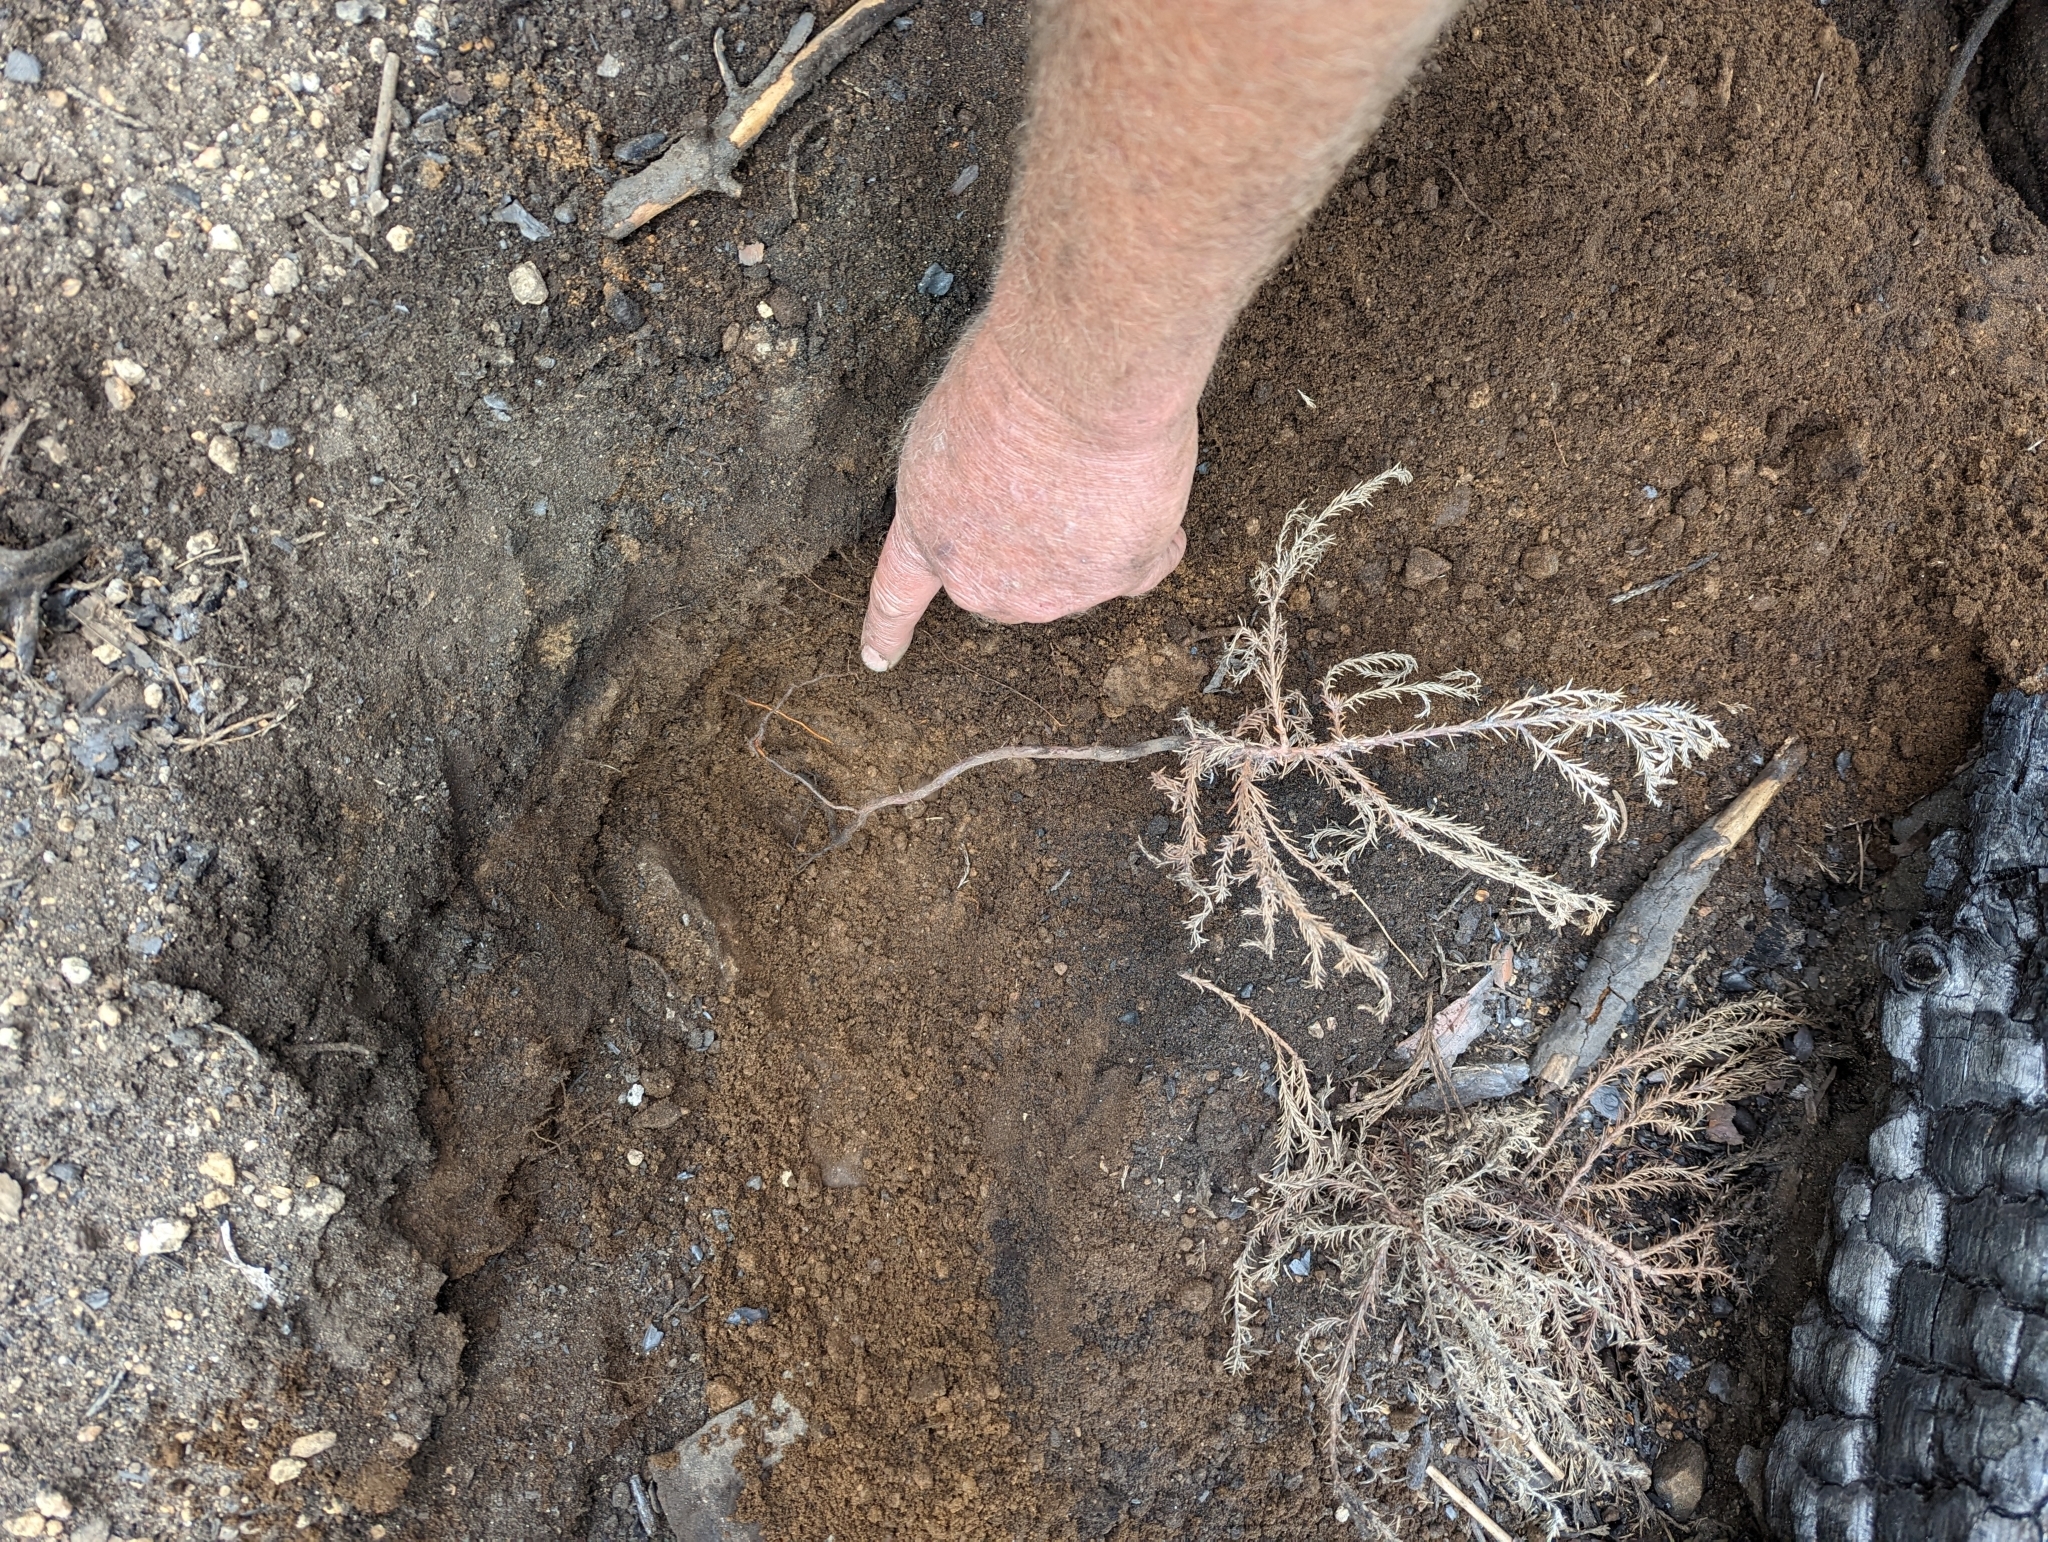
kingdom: Plantae
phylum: Tracheophyta
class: Pinopsida
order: Pinales
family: Cupressaceae
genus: Sequoiadendron
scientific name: Sequoiadendron giganteum
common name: Wellingtonia
